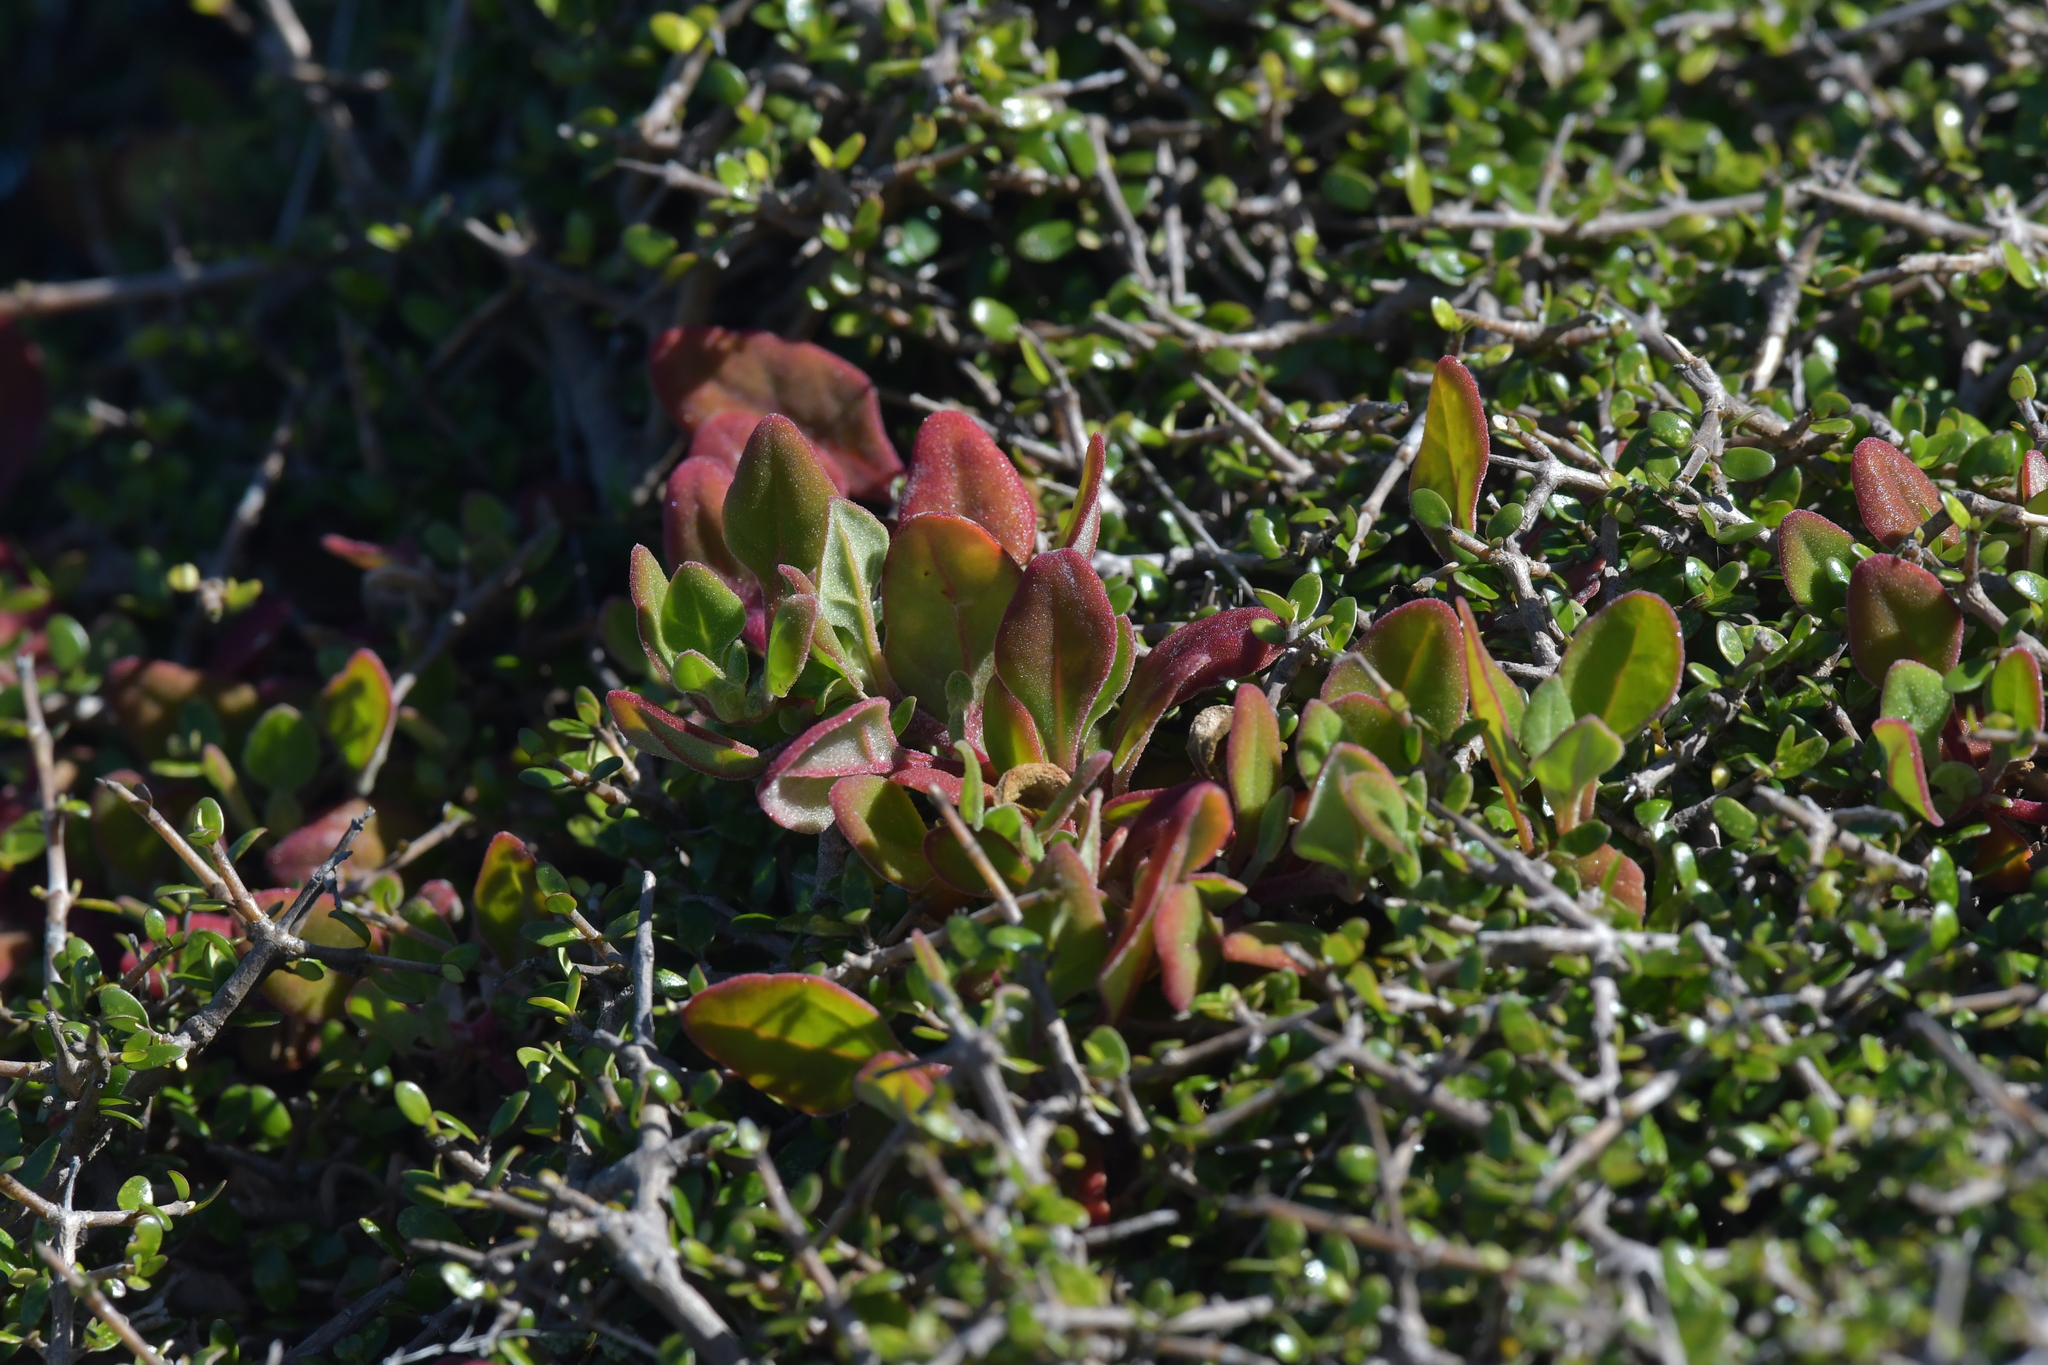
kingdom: Plantae
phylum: Tracheophyta
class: Magnoliopsida
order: Caryophyllales
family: Aizoaceae
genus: Tetragonia
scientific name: Tetragonia implexicoma
